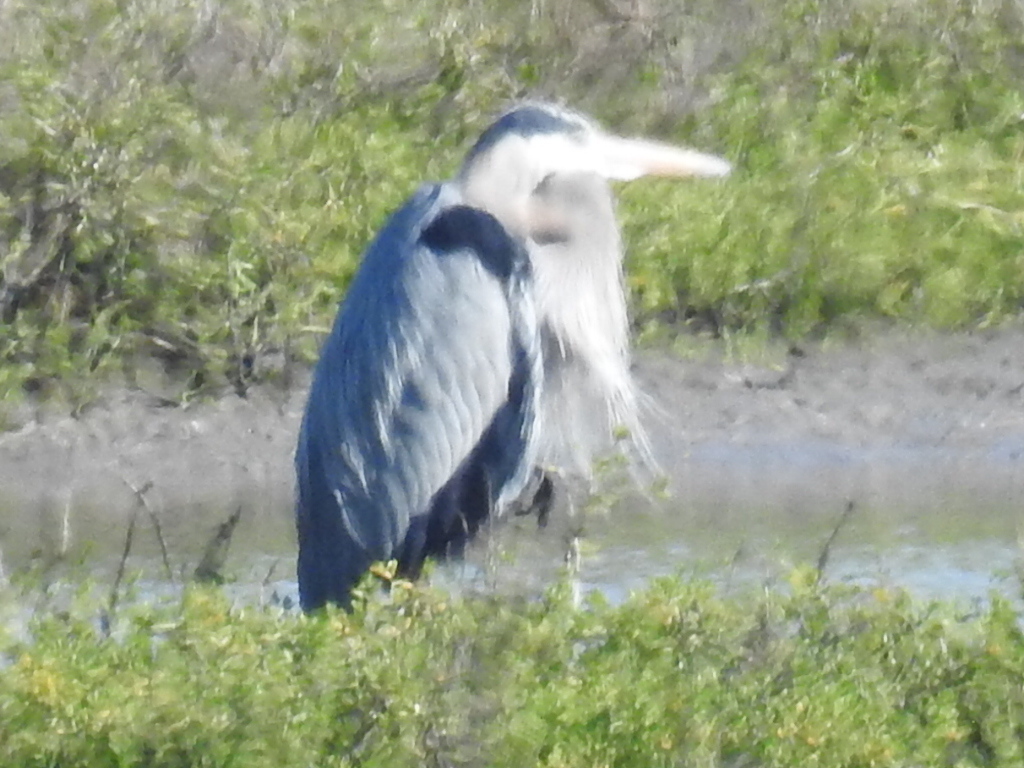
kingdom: Animalia
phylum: Chordata
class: Aves
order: Pelecaniformes
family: Ardeidae
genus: Ardea
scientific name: Ardea herodias
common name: Great blue heron
